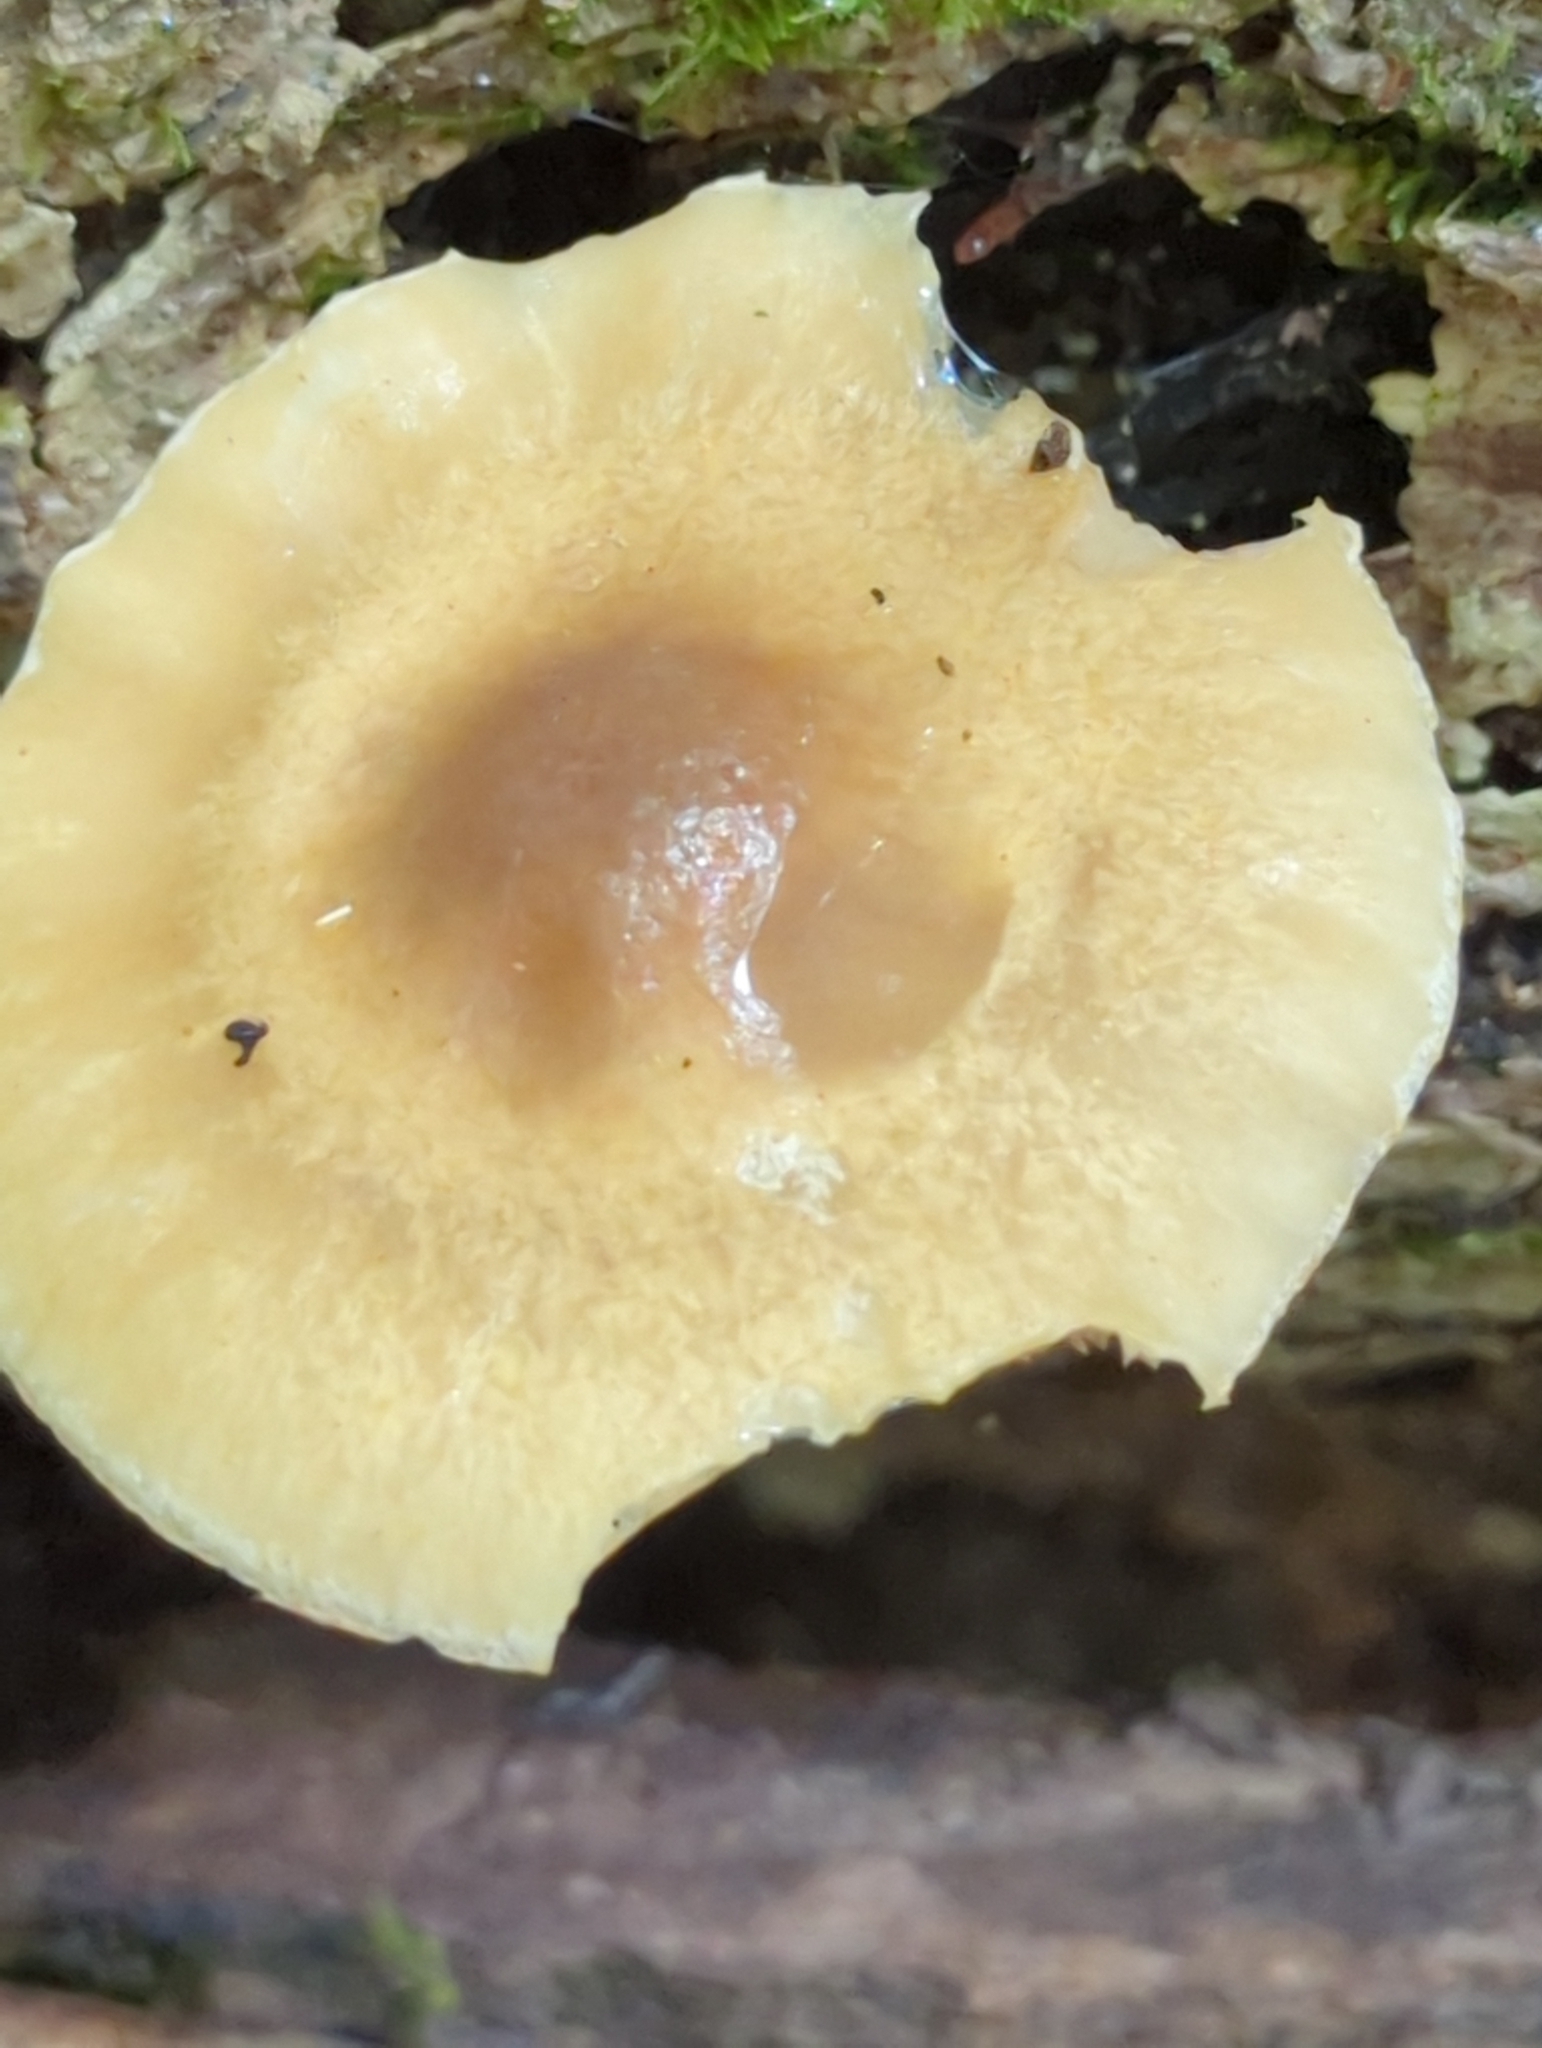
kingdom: Fungi
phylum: Basidiomycota
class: Agaricomycetes
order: Agaricales
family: Strophariaceae
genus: Agrocybe
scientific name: Agrocybe acericola
